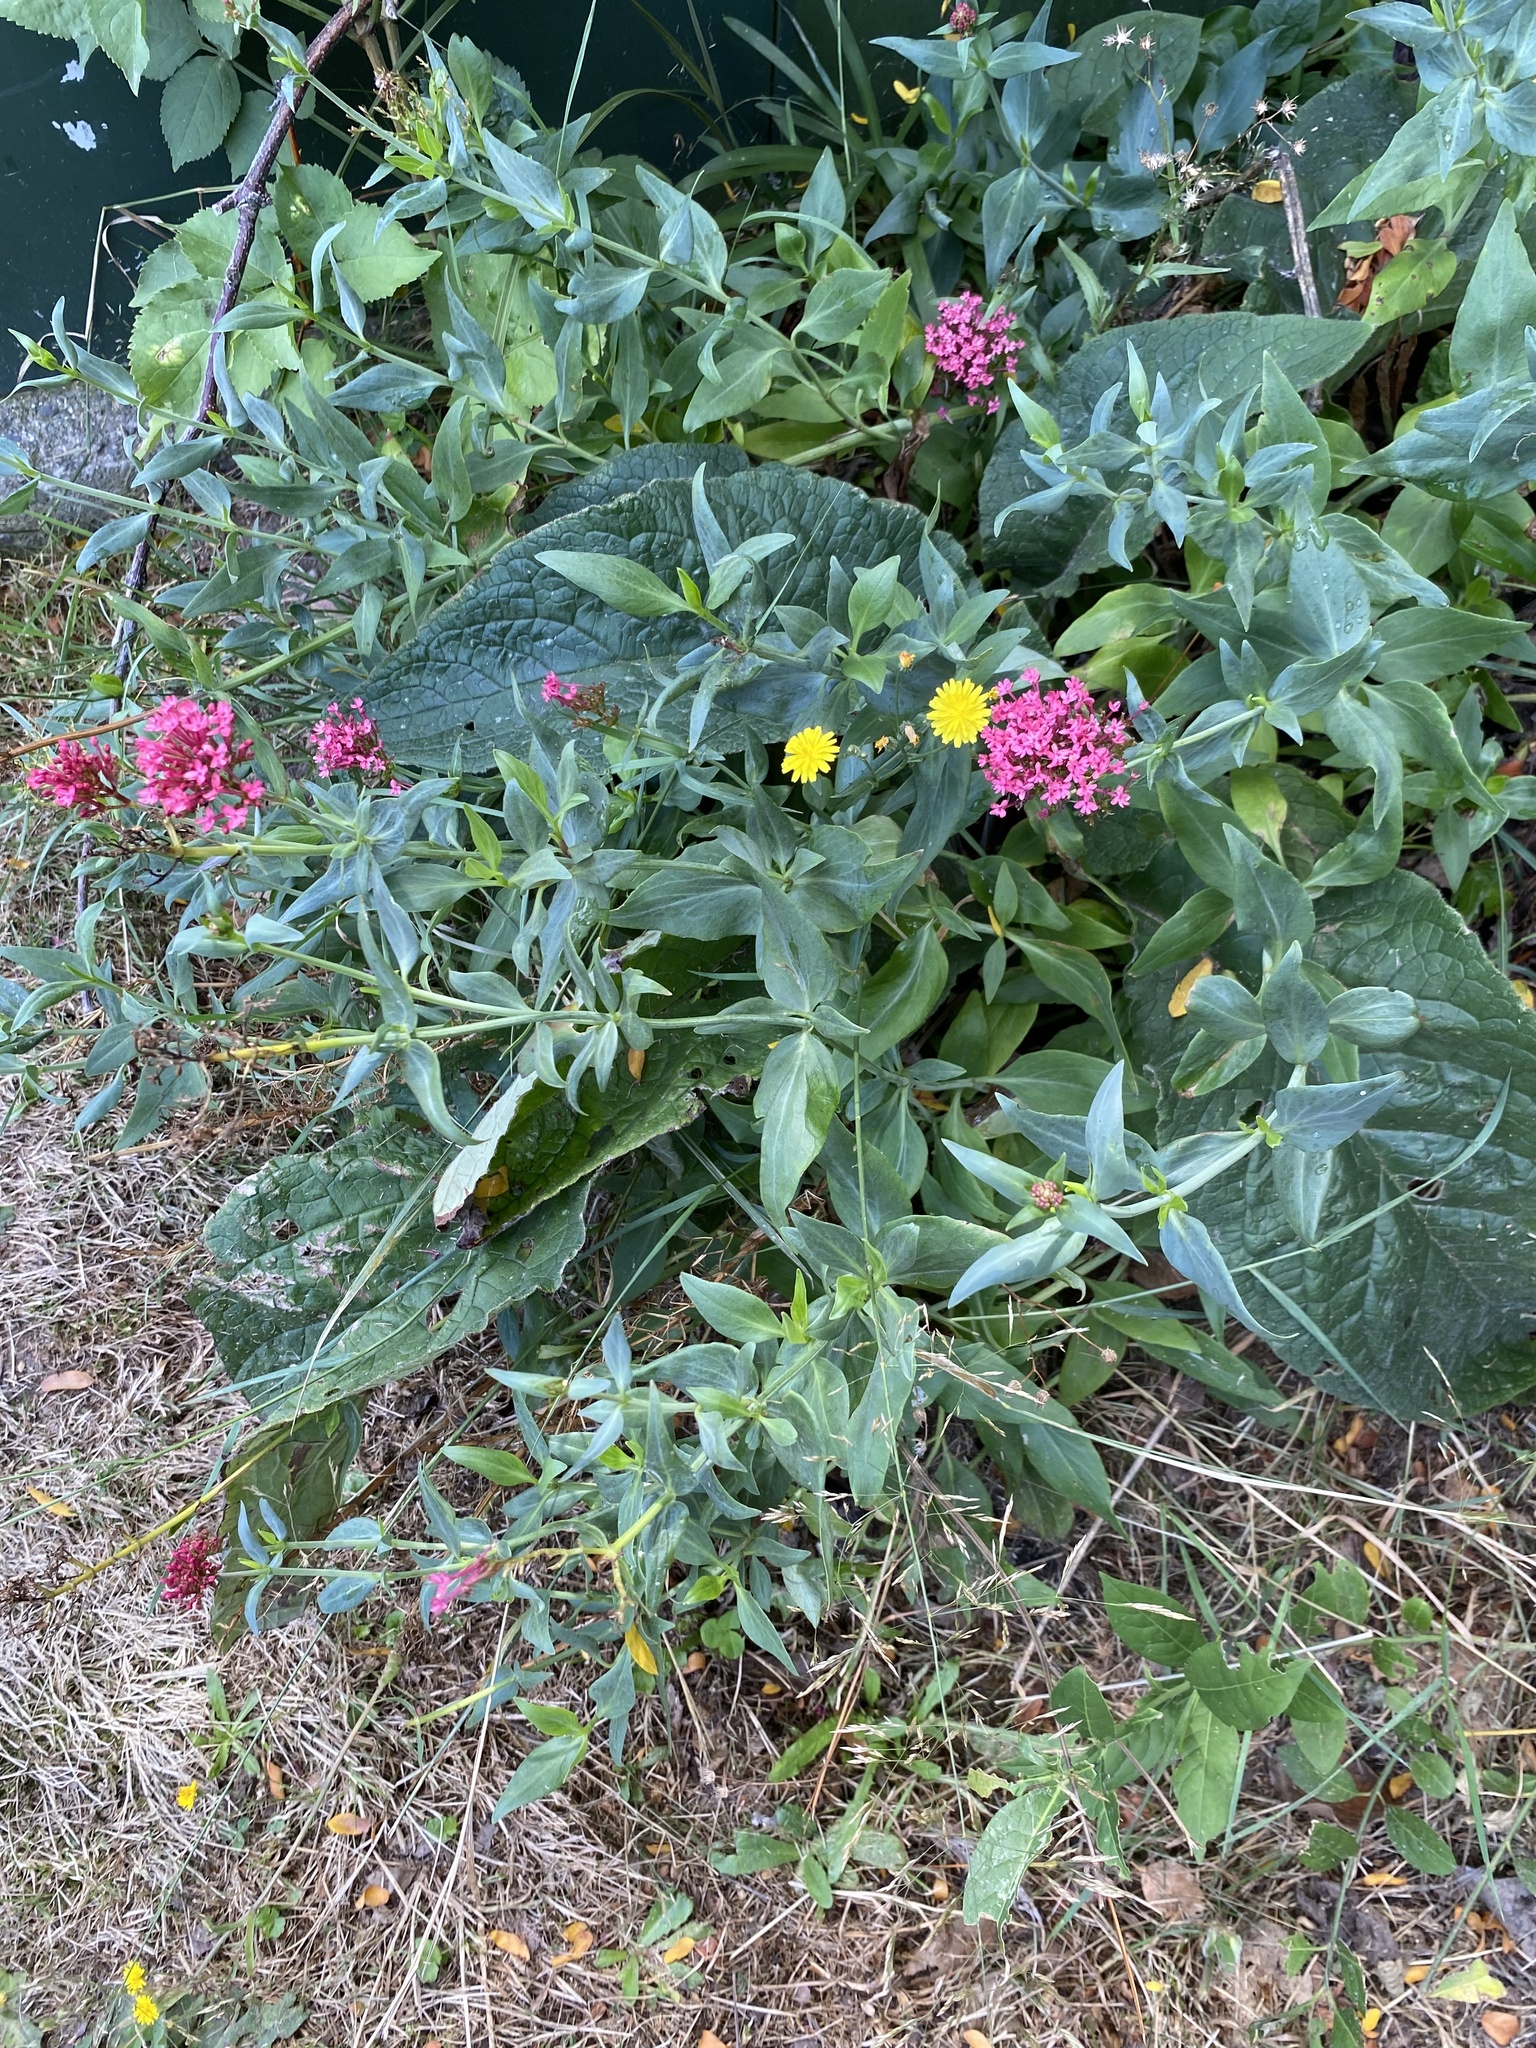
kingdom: Plantae
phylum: Tracheophyta
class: Magnoliopsida
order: Dipsacales
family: Caprifoliaceae
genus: Centranthus
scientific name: Centranthus ruber
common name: Red valerian
